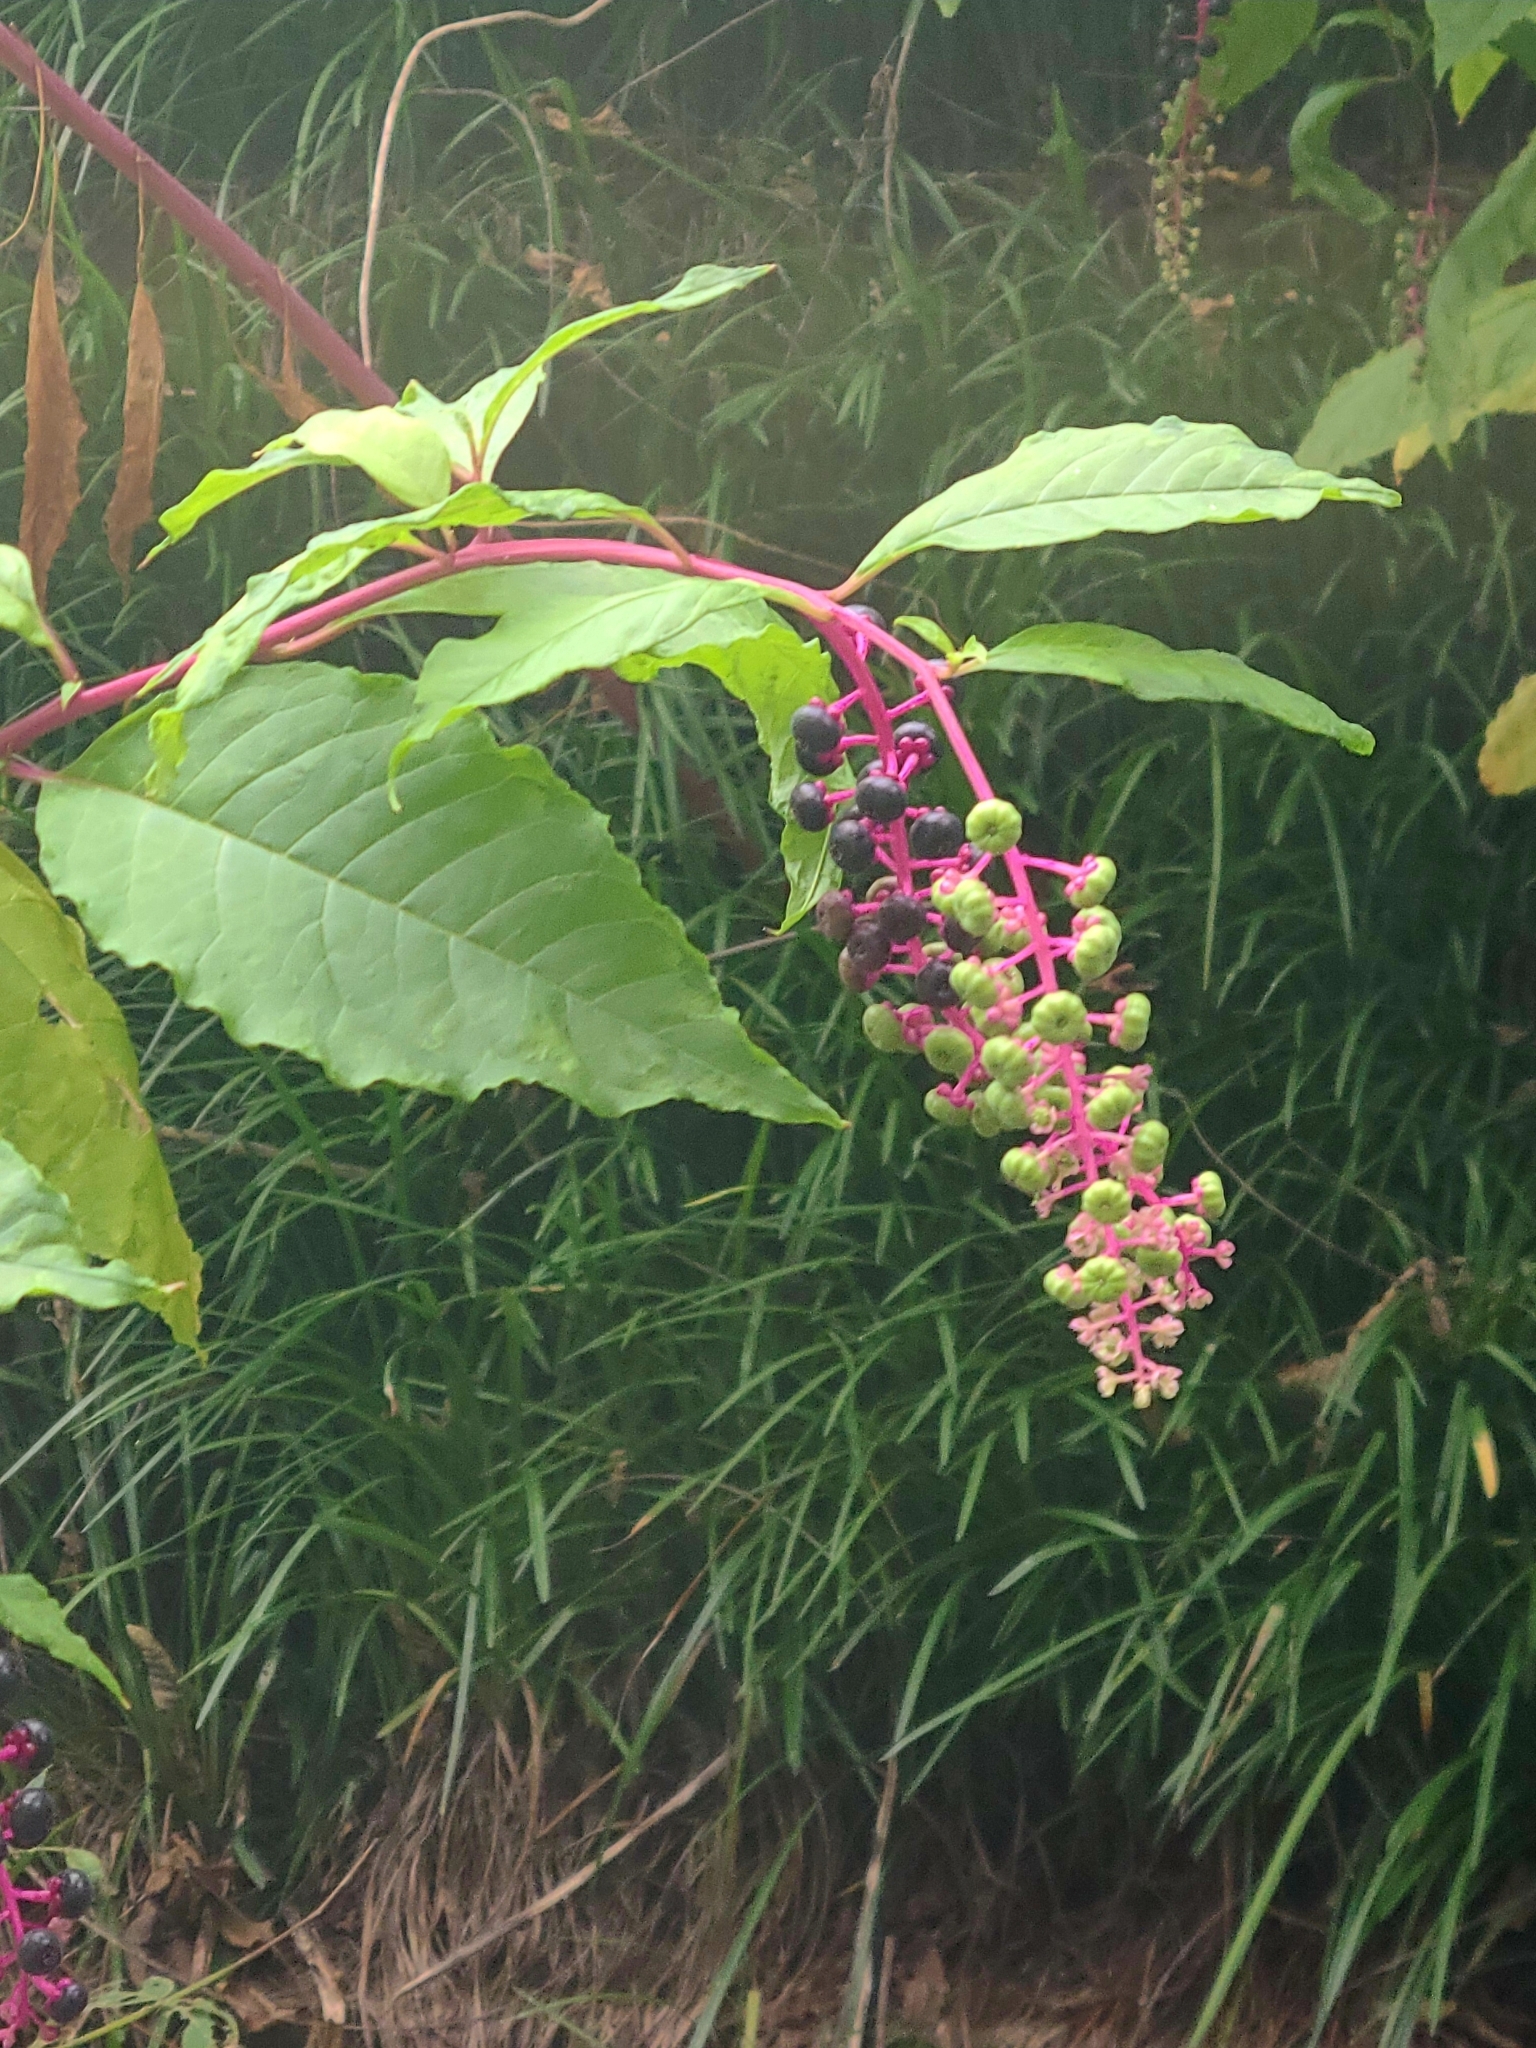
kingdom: Plantae
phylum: Tracheophyta
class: Magnoliopsida
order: Caryophyllales
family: Phytolaccaceae
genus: Phytolacca
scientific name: Phytolacca americana
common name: American pokeweed
